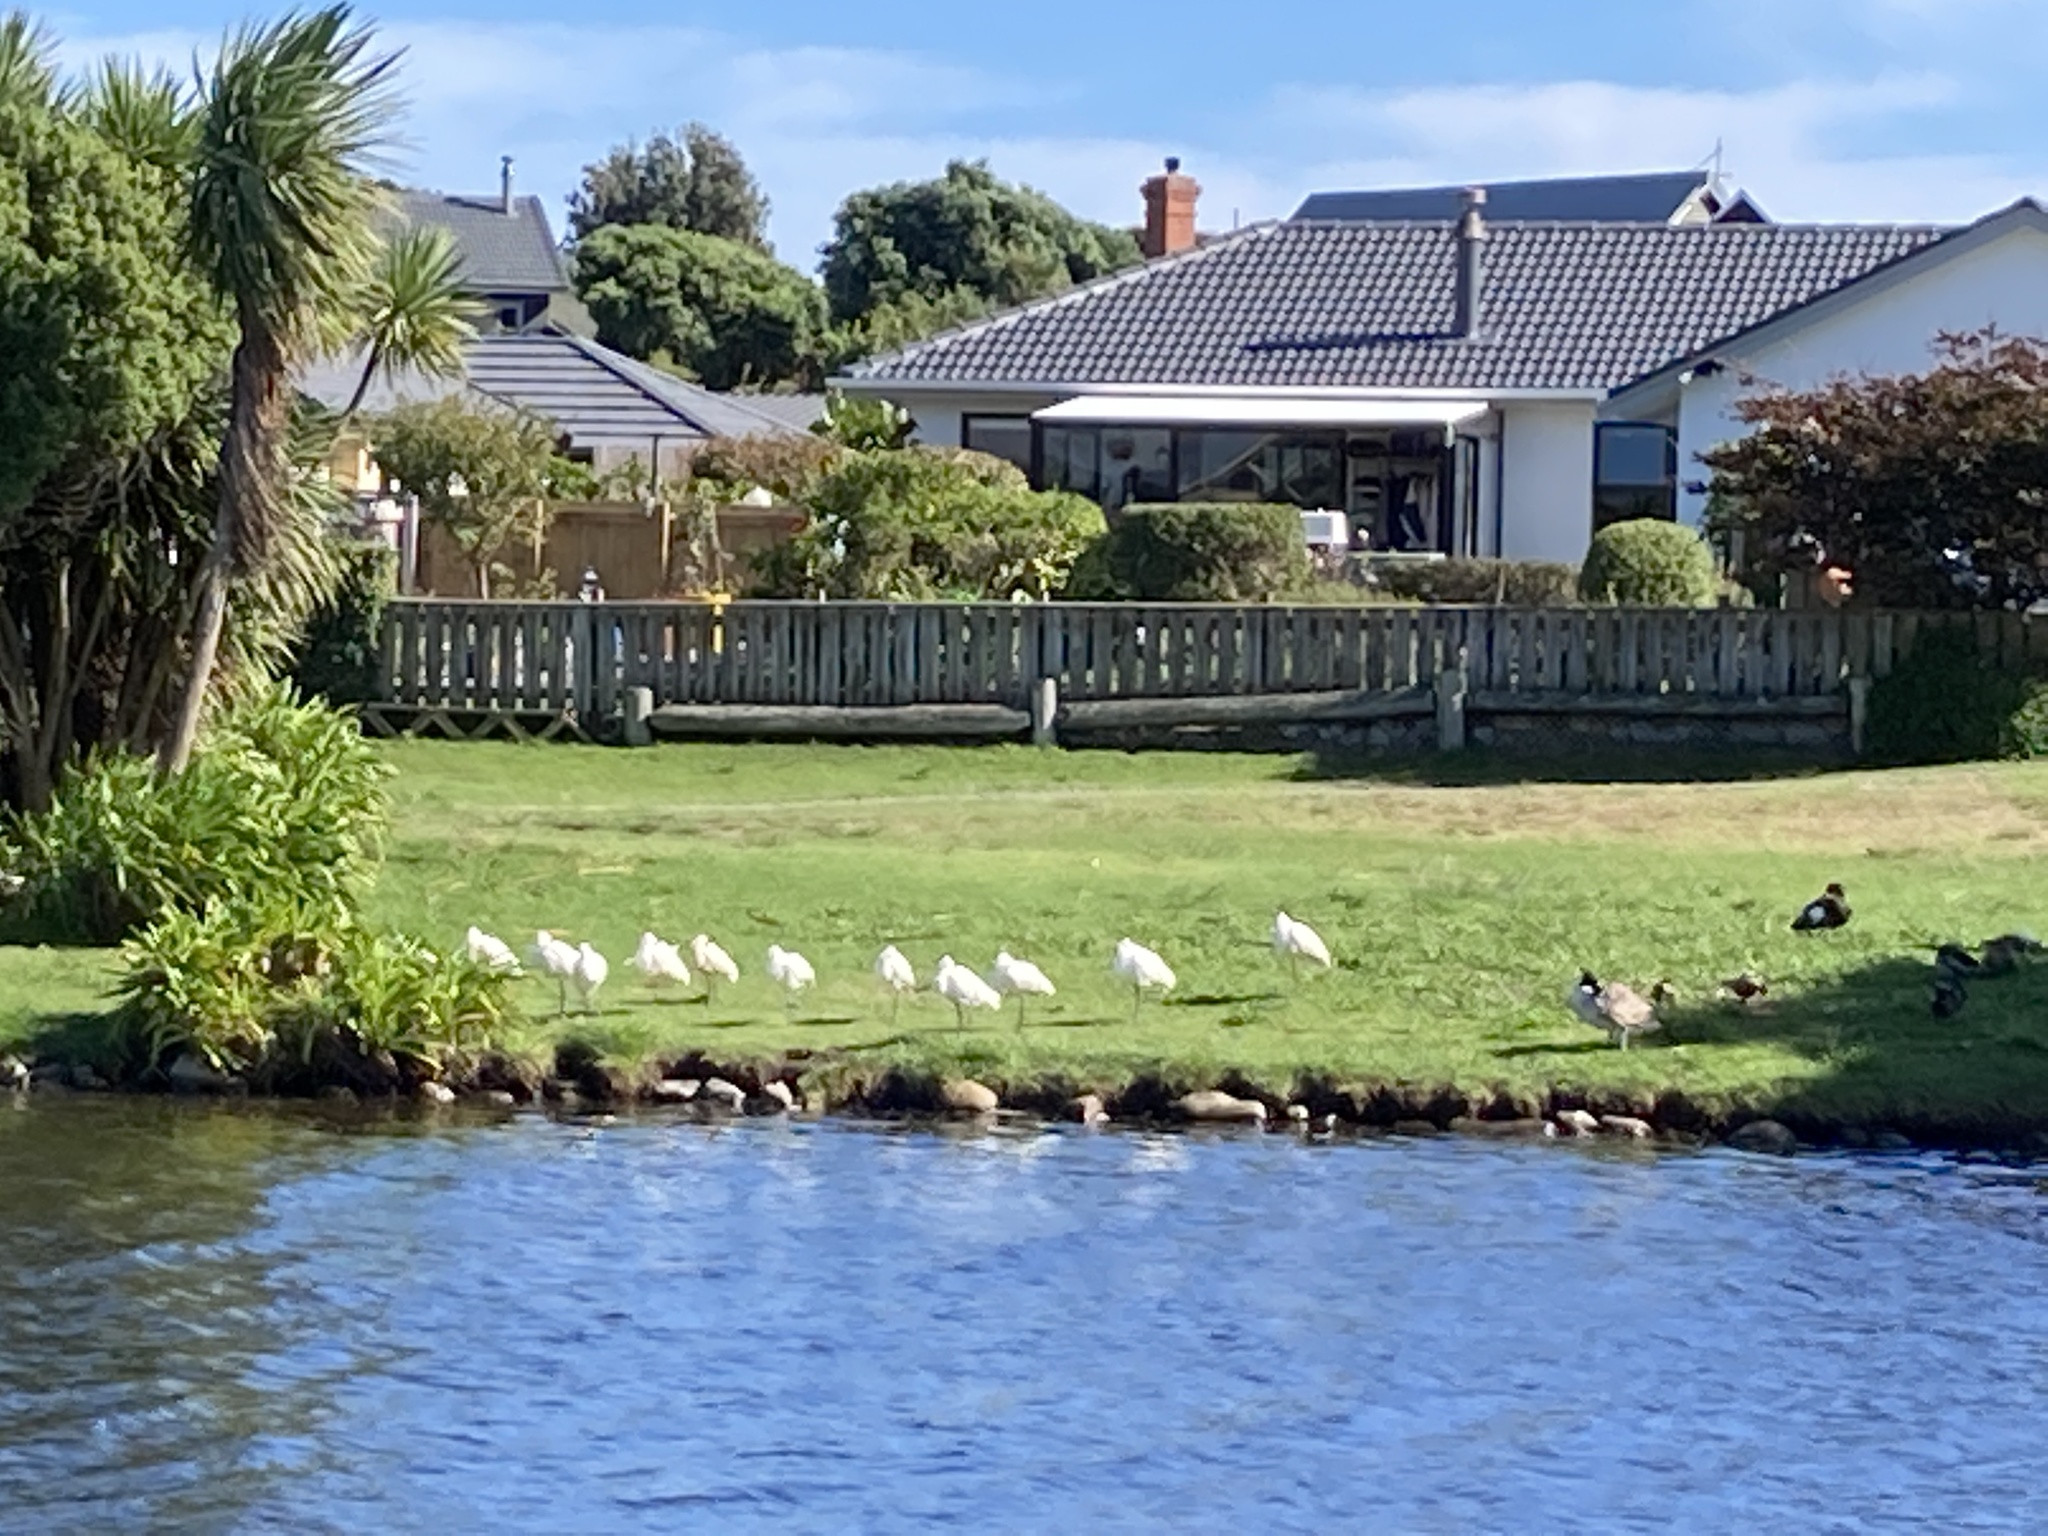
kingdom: Animalia
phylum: Chordata
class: Aves
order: Pelecaniformes
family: Threskiornithidae
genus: Platalea
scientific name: Platalea regia
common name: Royal spoonbill
